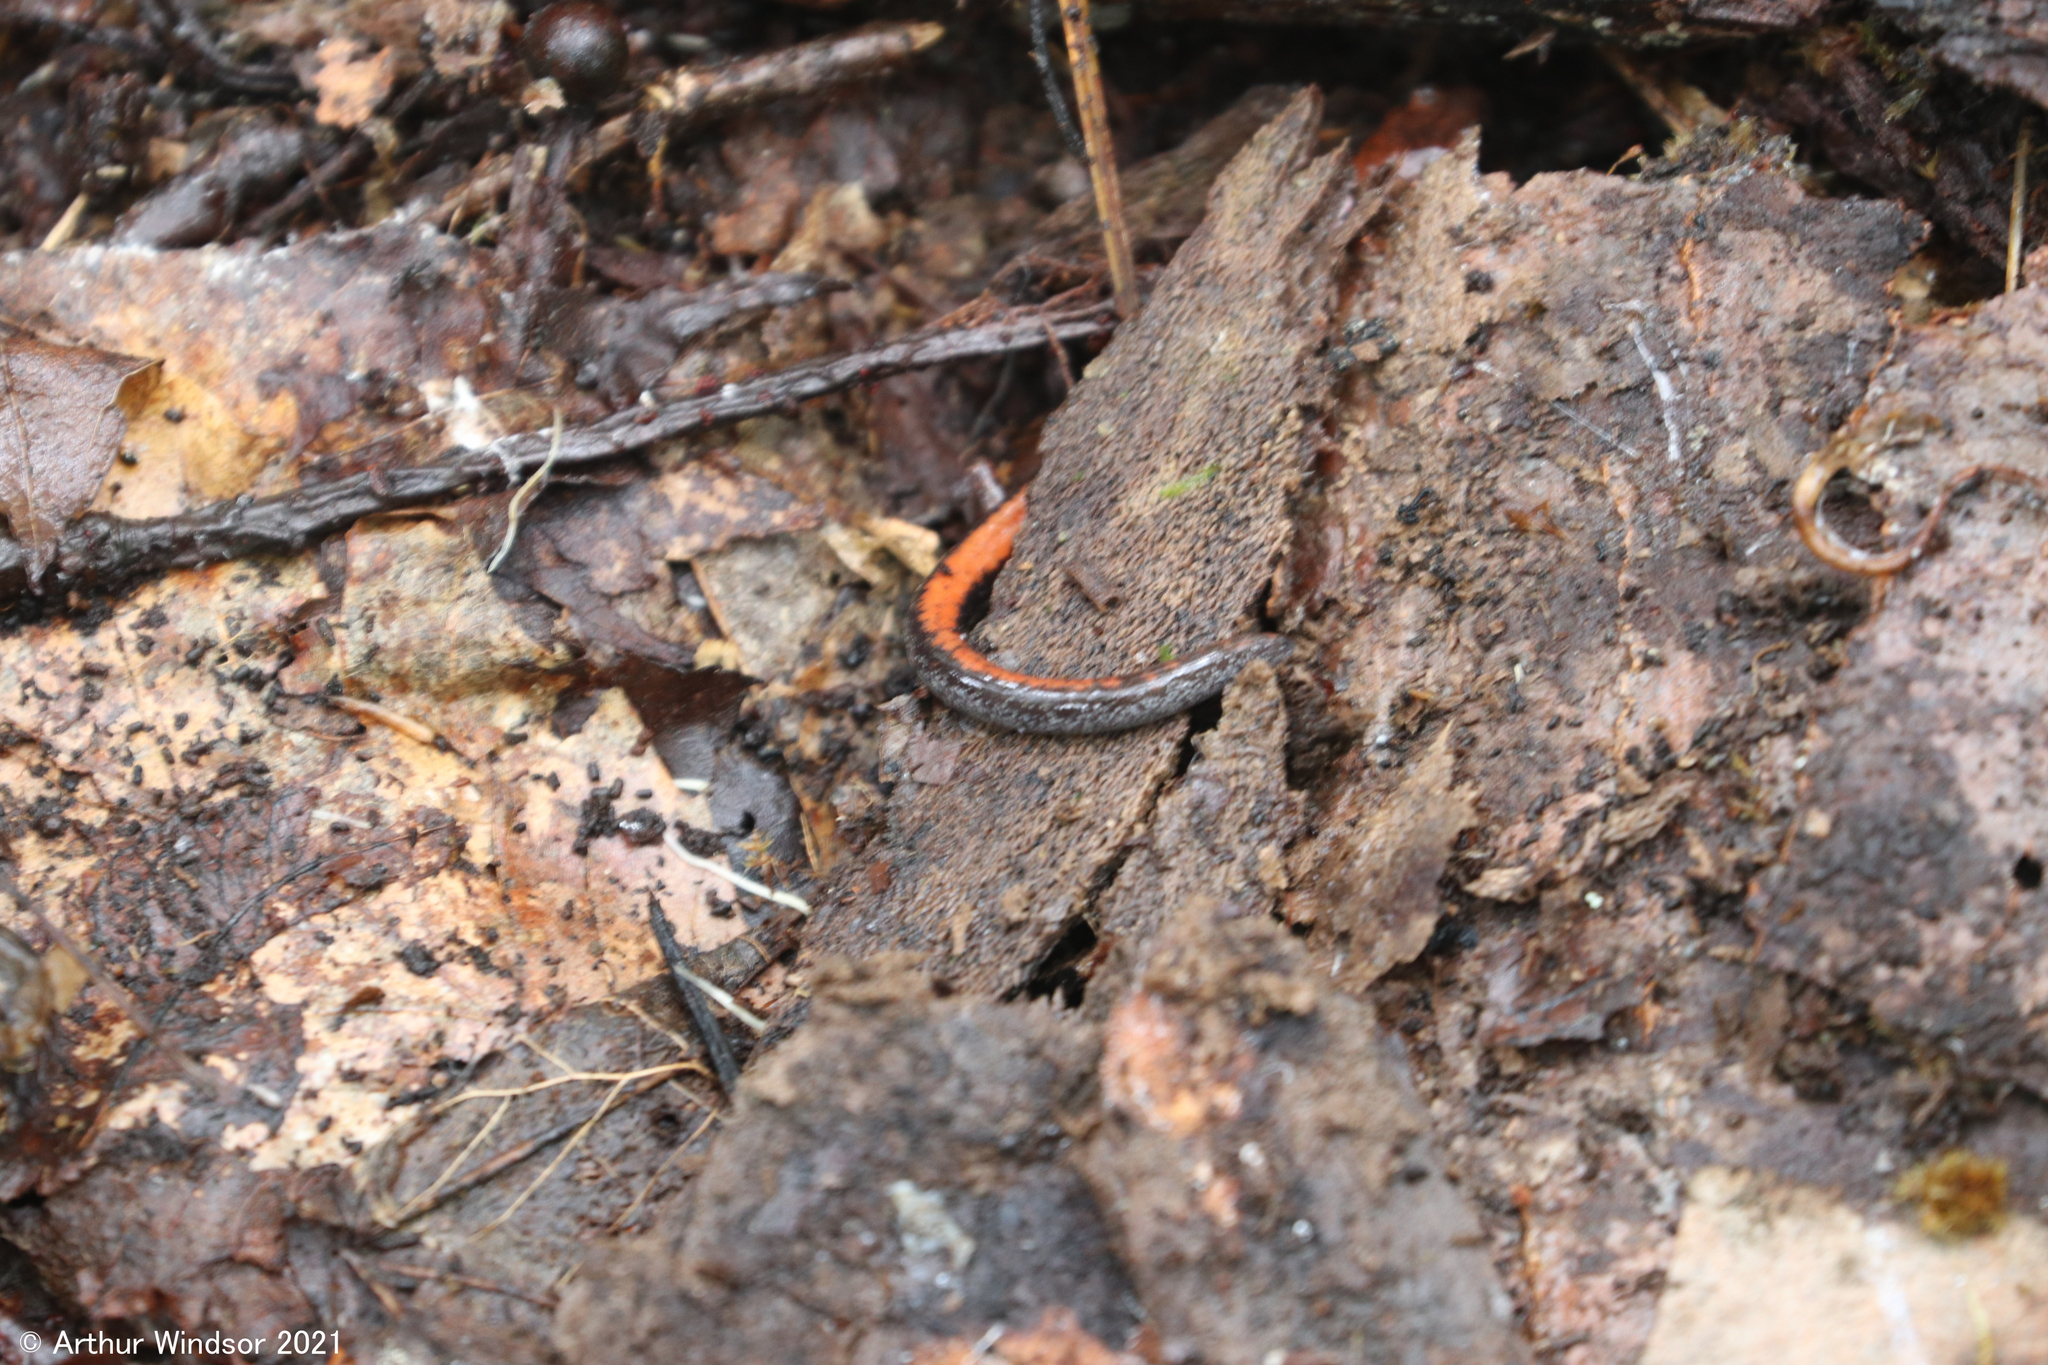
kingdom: Animalia
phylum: Chordata
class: Amphibia
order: Caudata
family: Plethodontidae
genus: Plethodon
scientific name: Plethodon cinereus
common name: Redback salamander
